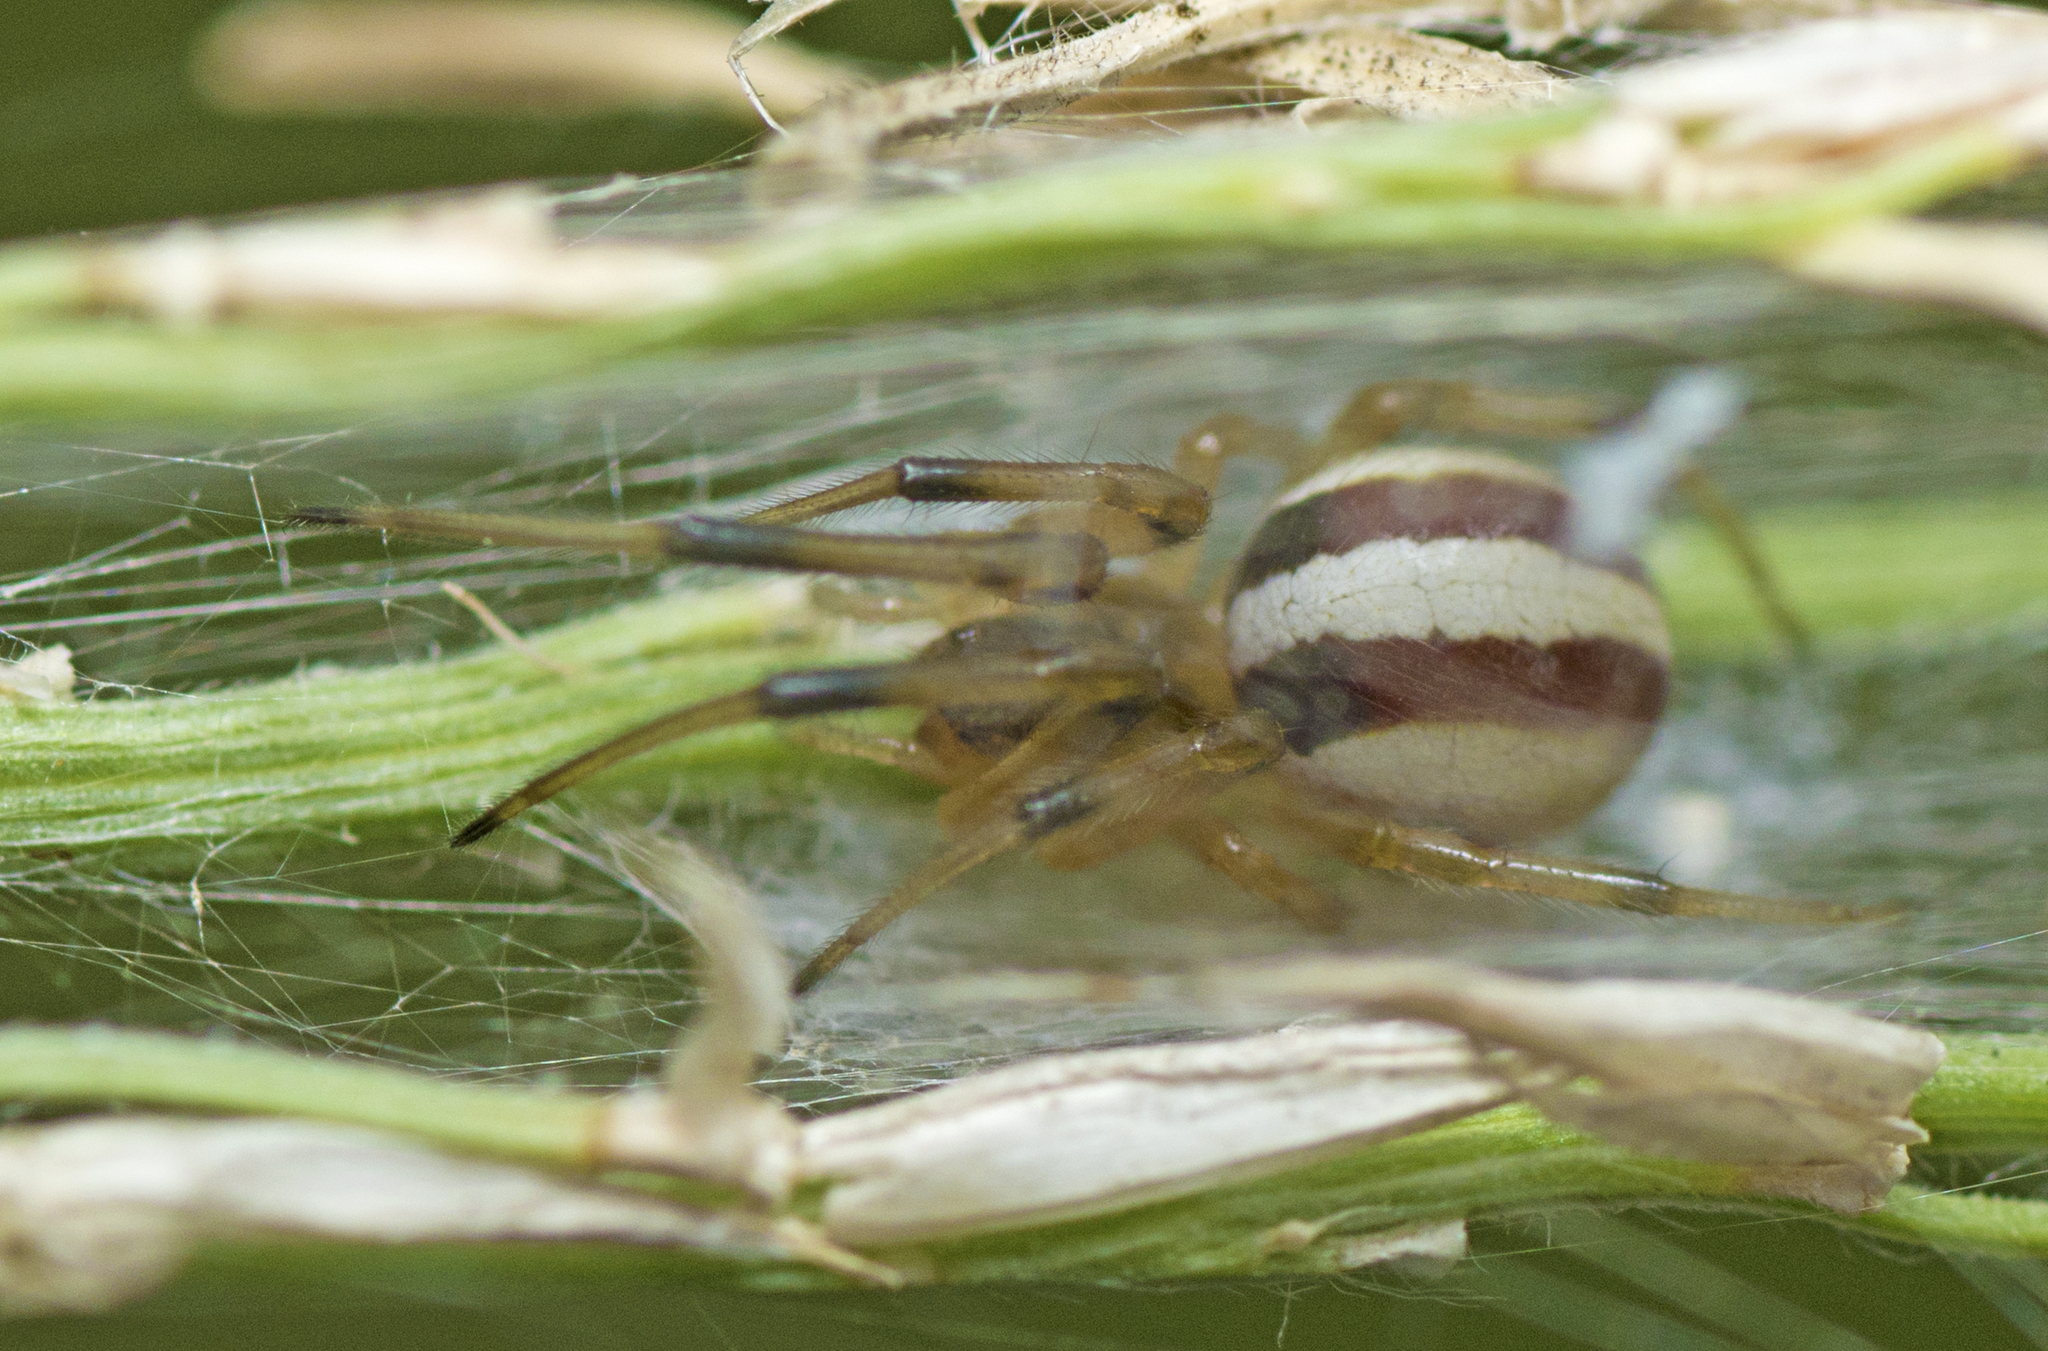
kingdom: Animalia
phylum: Arthropoda
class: Arachnida
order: Araneae
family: Araneidae
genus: Deliochus
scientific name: Deliochus idoneus
